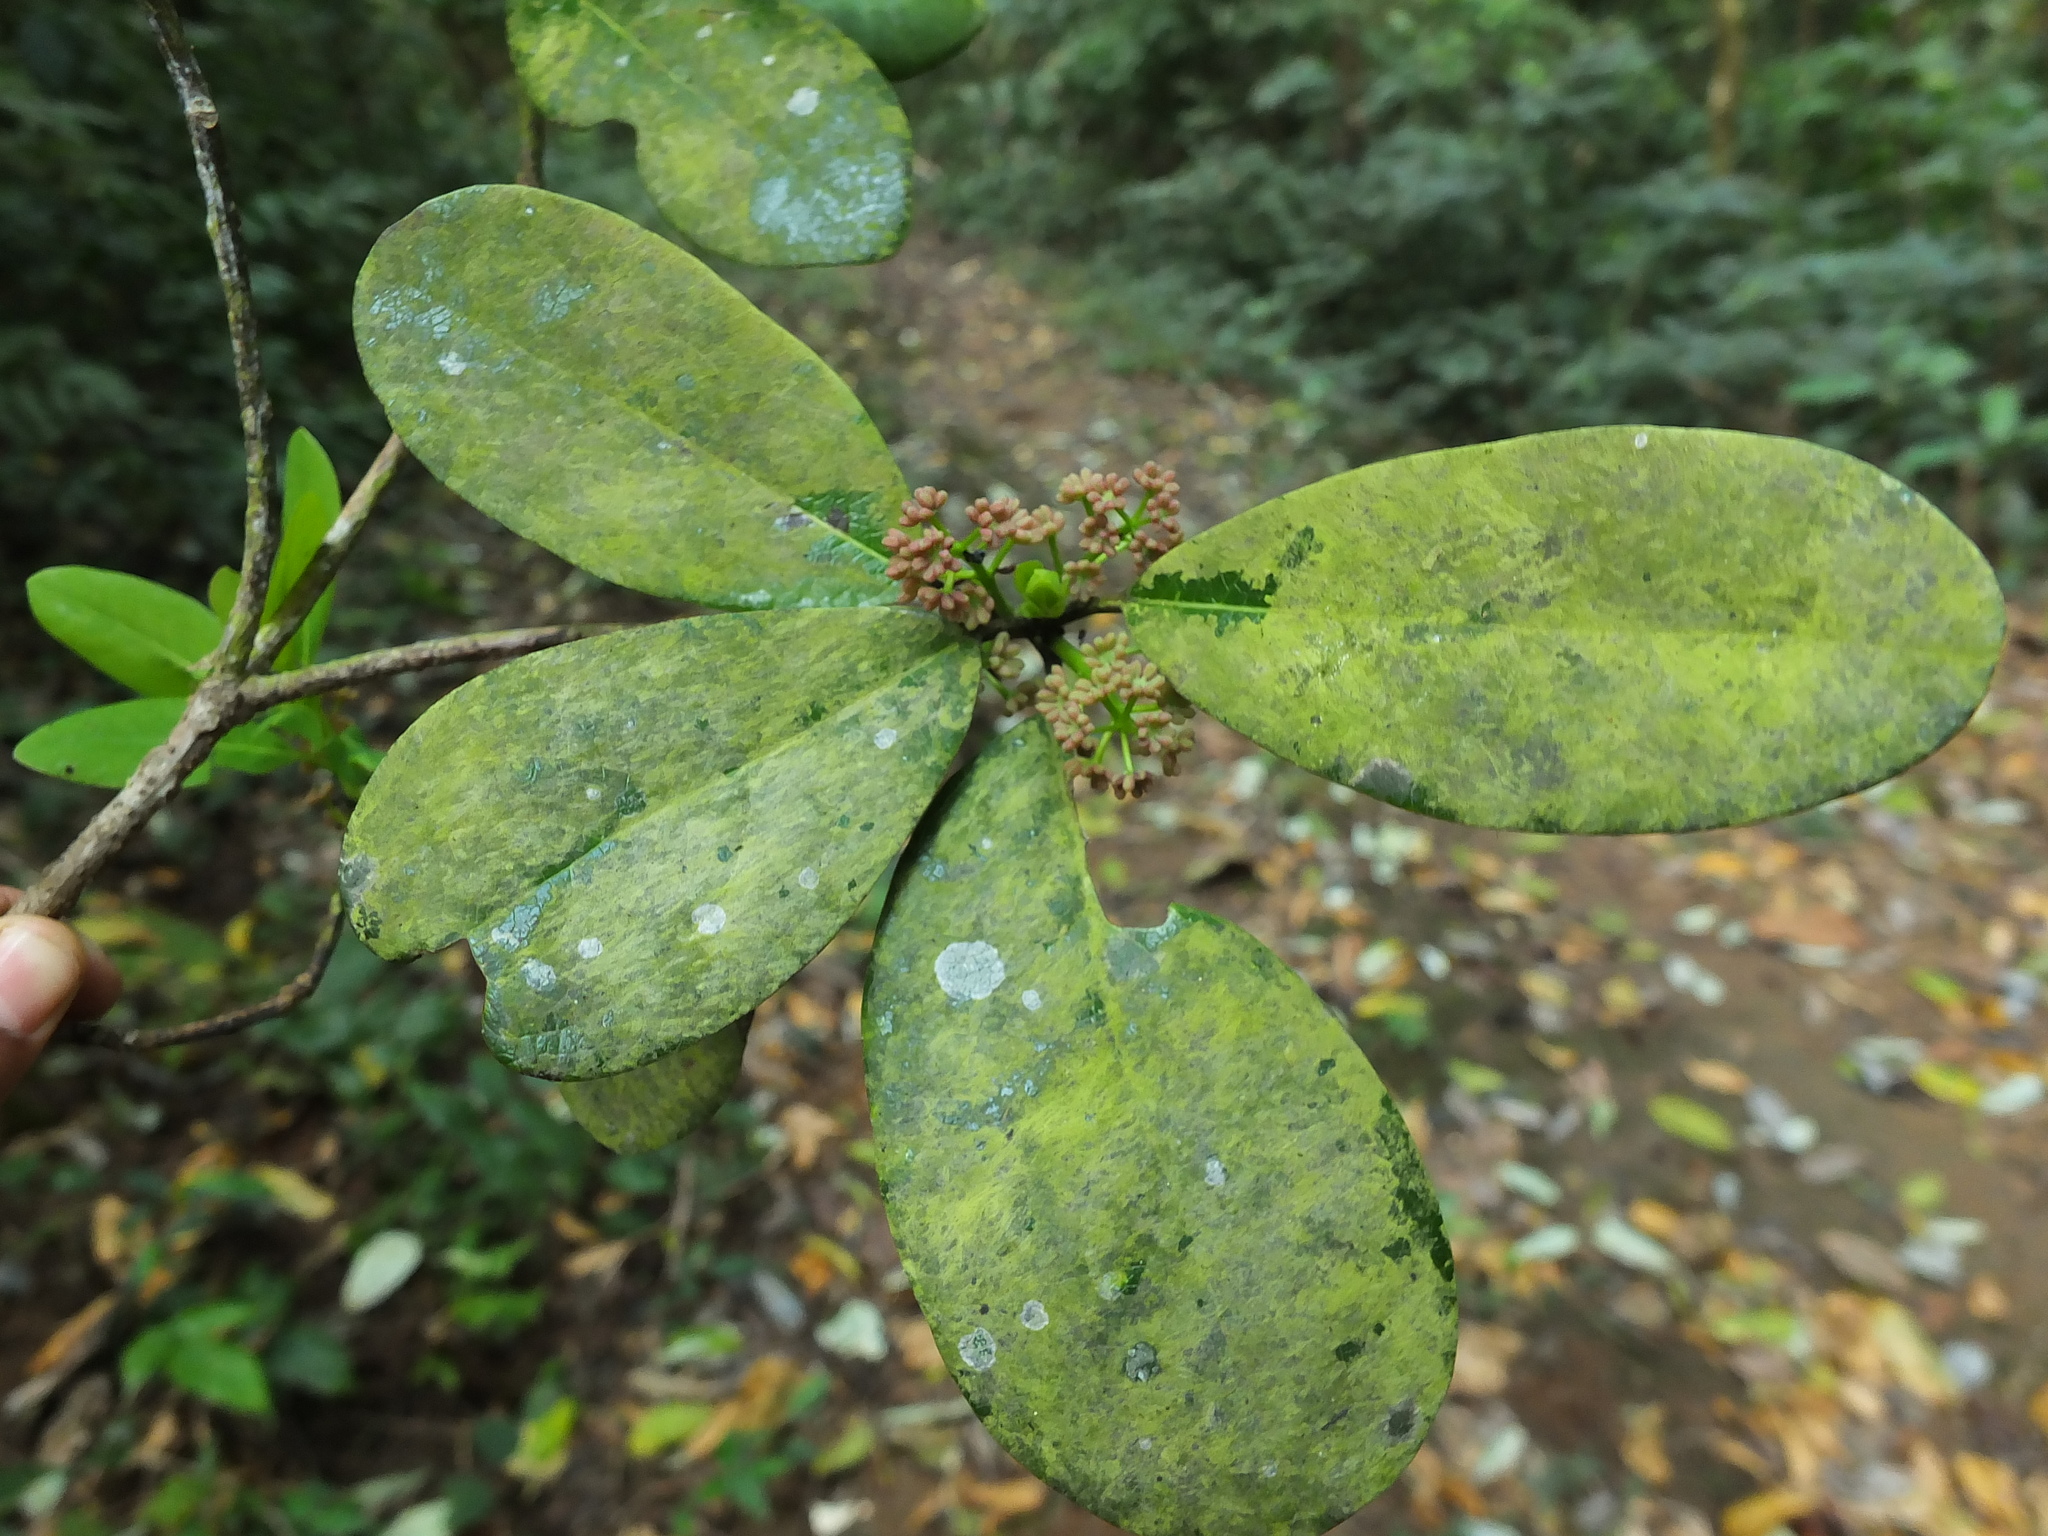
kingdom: Plantae
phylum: Tracheophyta
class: Magnoliopsida
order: Saxifragales
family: Daphniphyllaceae
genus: Daphniphyllum
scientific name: Daphniphyllum neilgherrense
